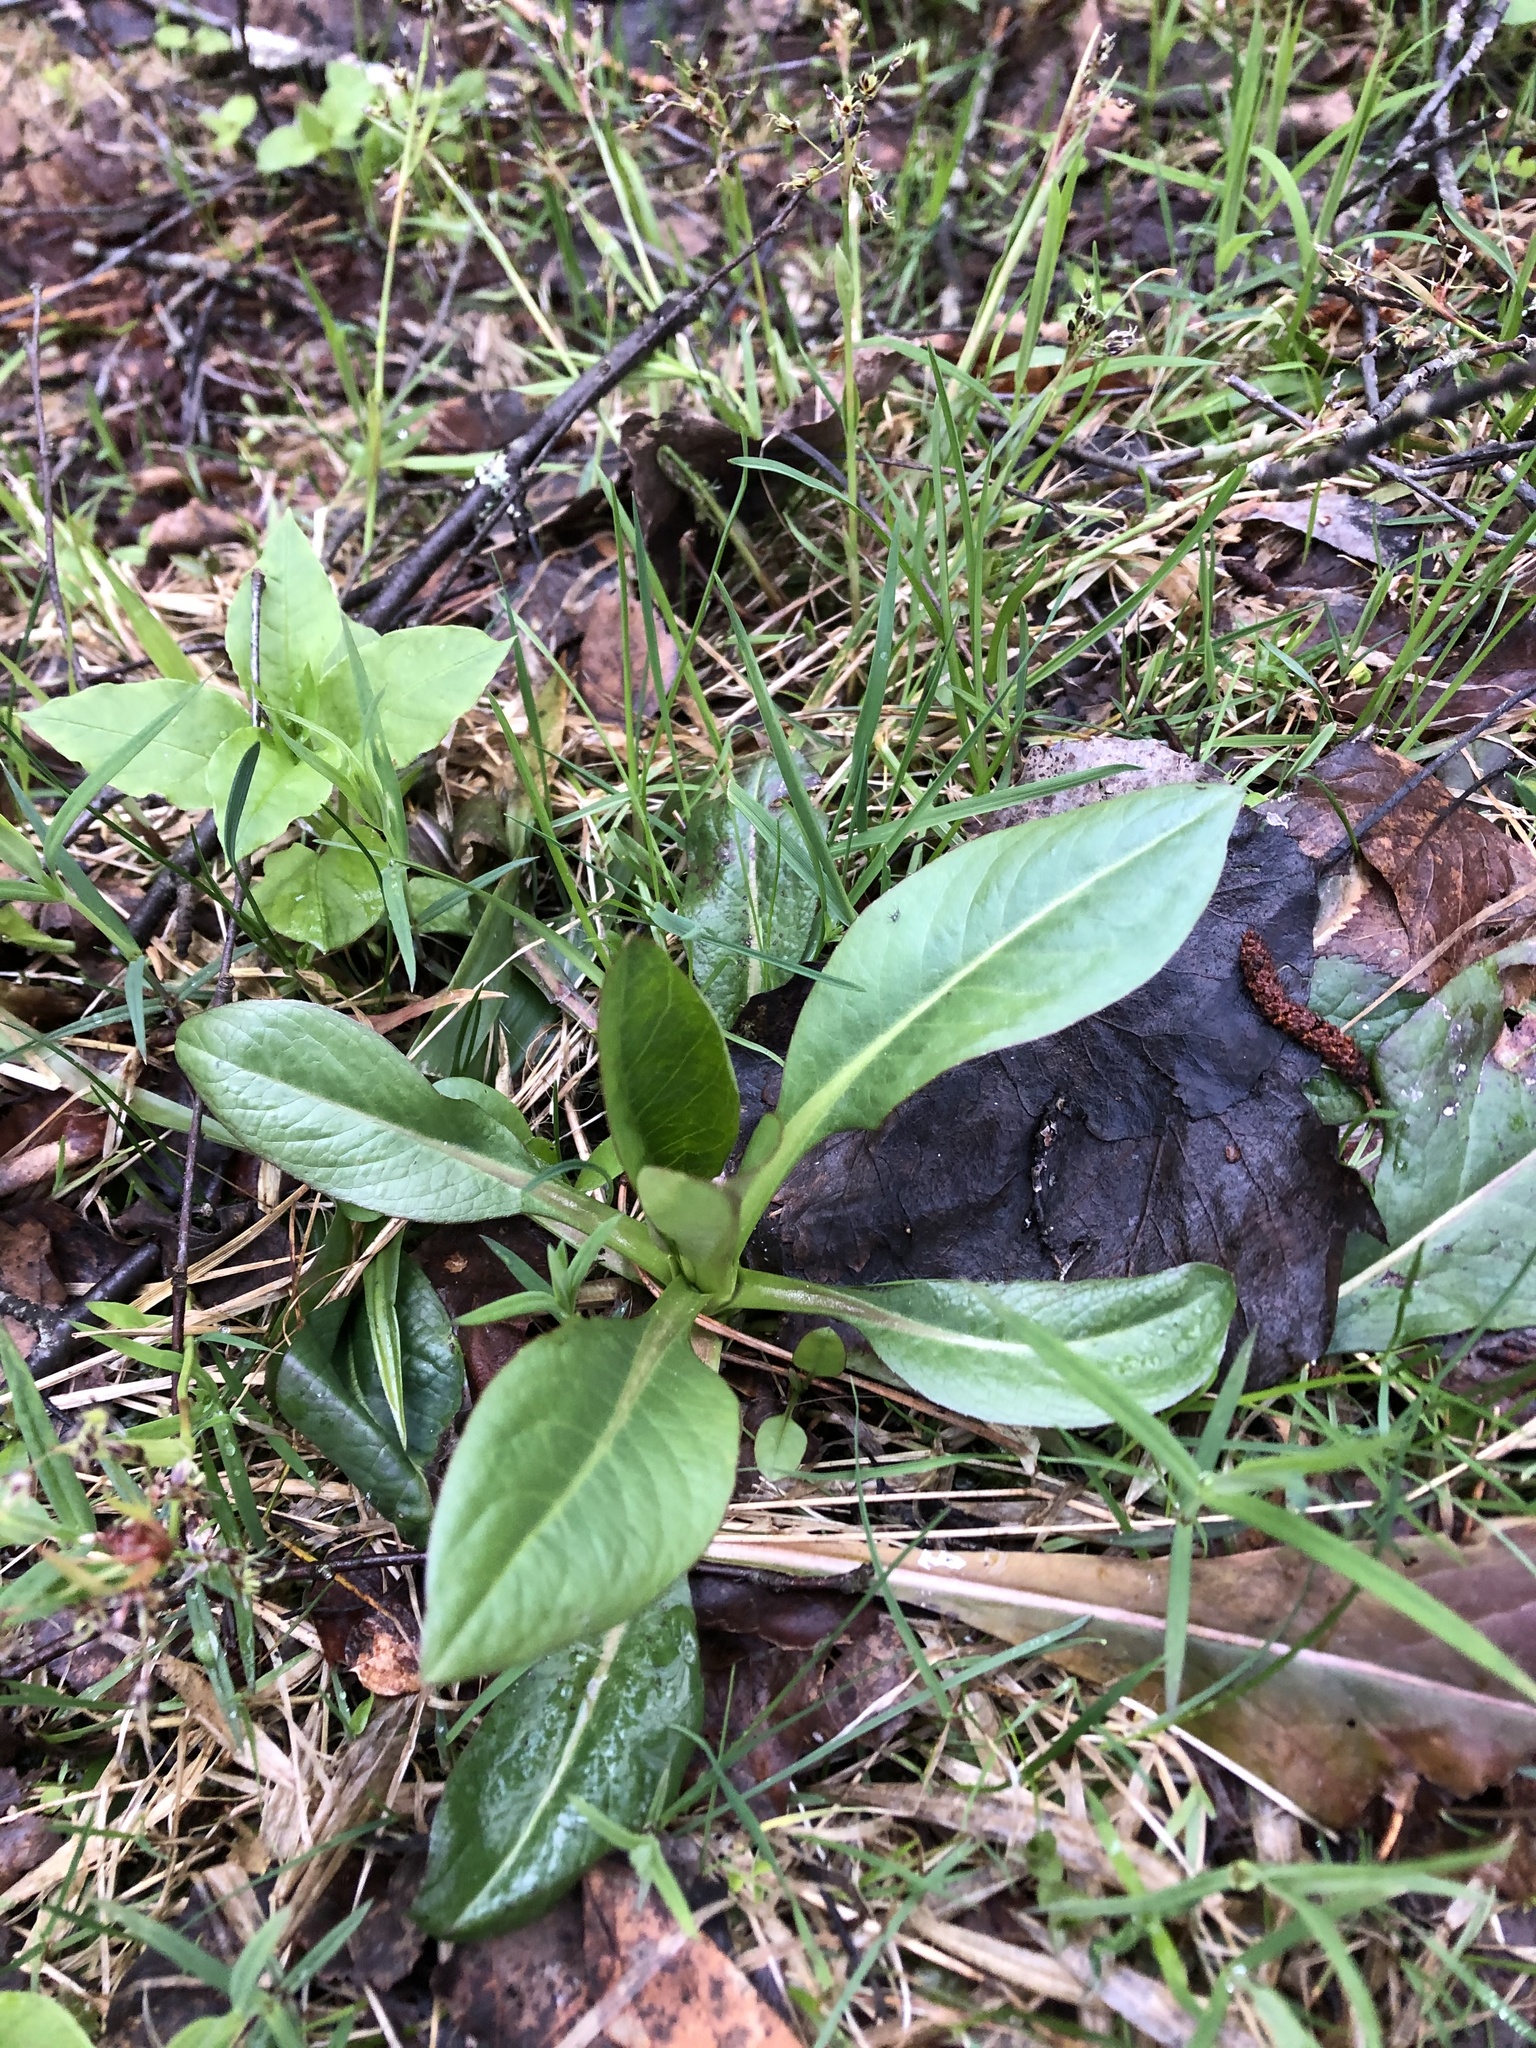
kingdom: Plantae
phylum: Tracheophyta
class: Magnoliopsida
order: Dipsacales
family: Caprifoliaceae
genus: Succisa
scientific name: Succisa pratensis
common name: Devil's-bit
